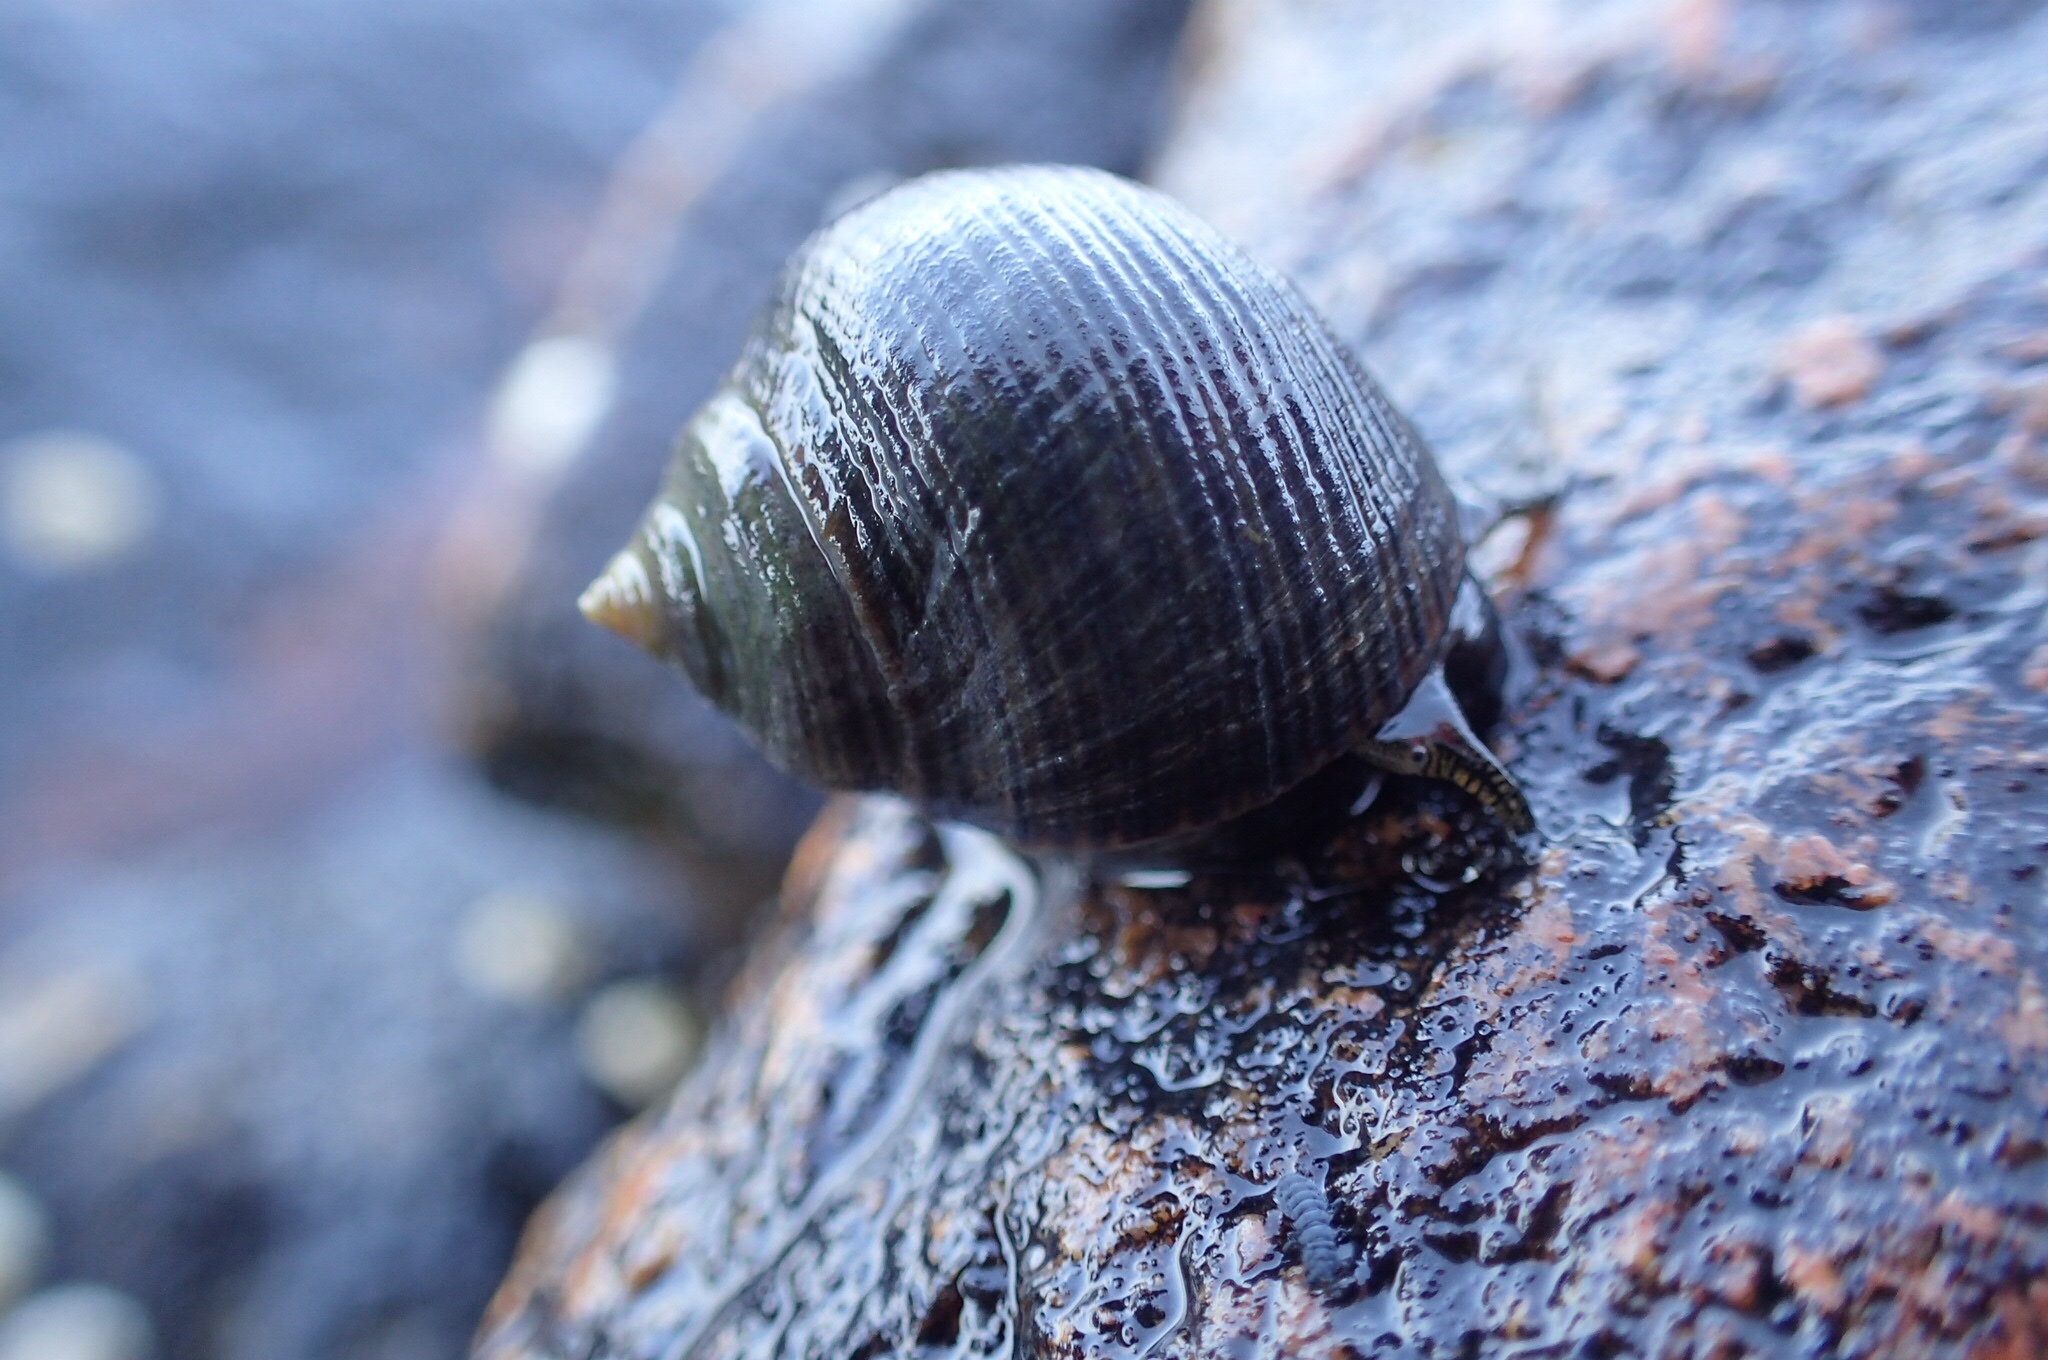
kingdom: Animalia
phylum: Mollusca
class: Gastropoda
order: Littorinimorpha
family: Littorinidae
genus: Littorina
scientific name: Littorina littorea
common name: Common periwinkle
